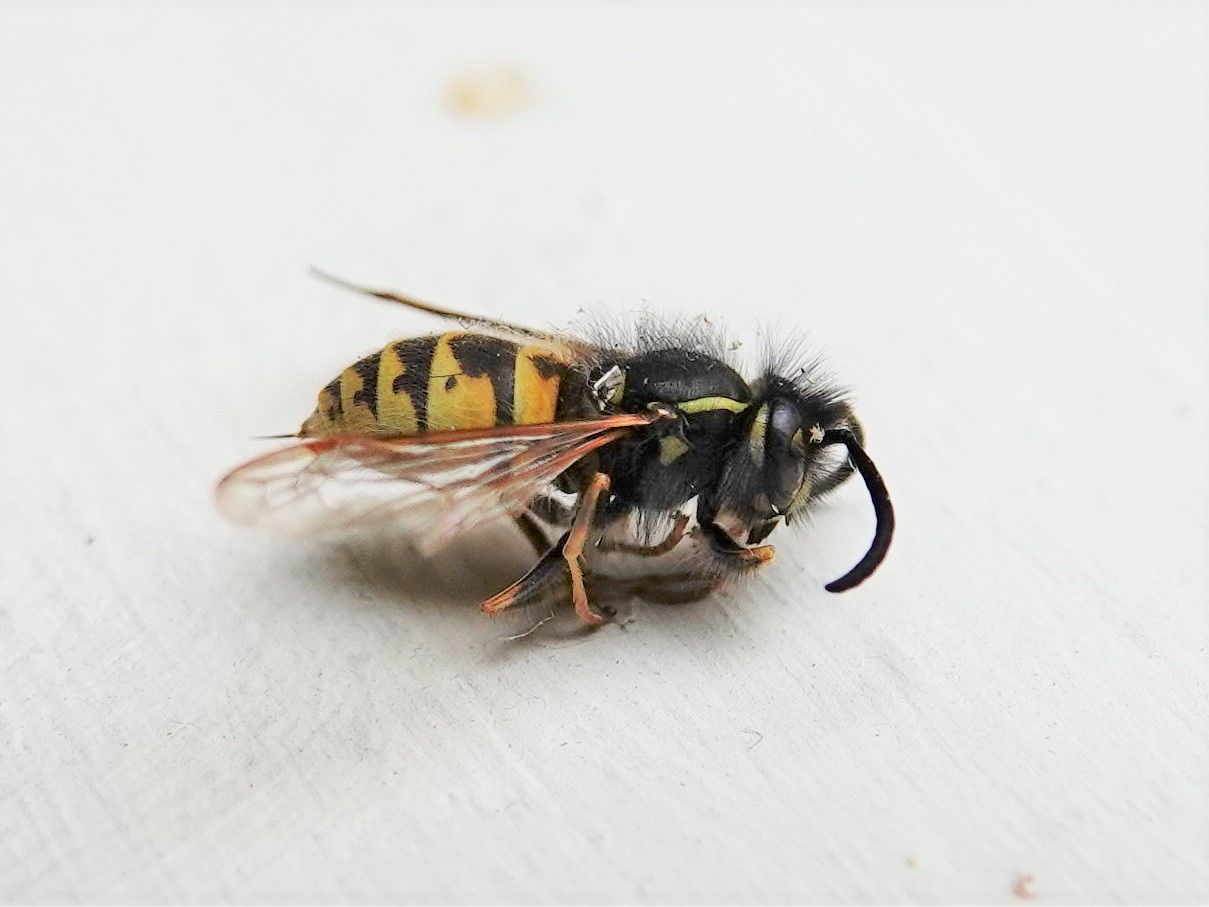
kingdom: Animalia
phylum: Arthropoda
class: Insecta
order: Hymenoptera
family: Vespidae
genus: Vespula
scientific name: Vespula vulgaris
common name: Common wasp
